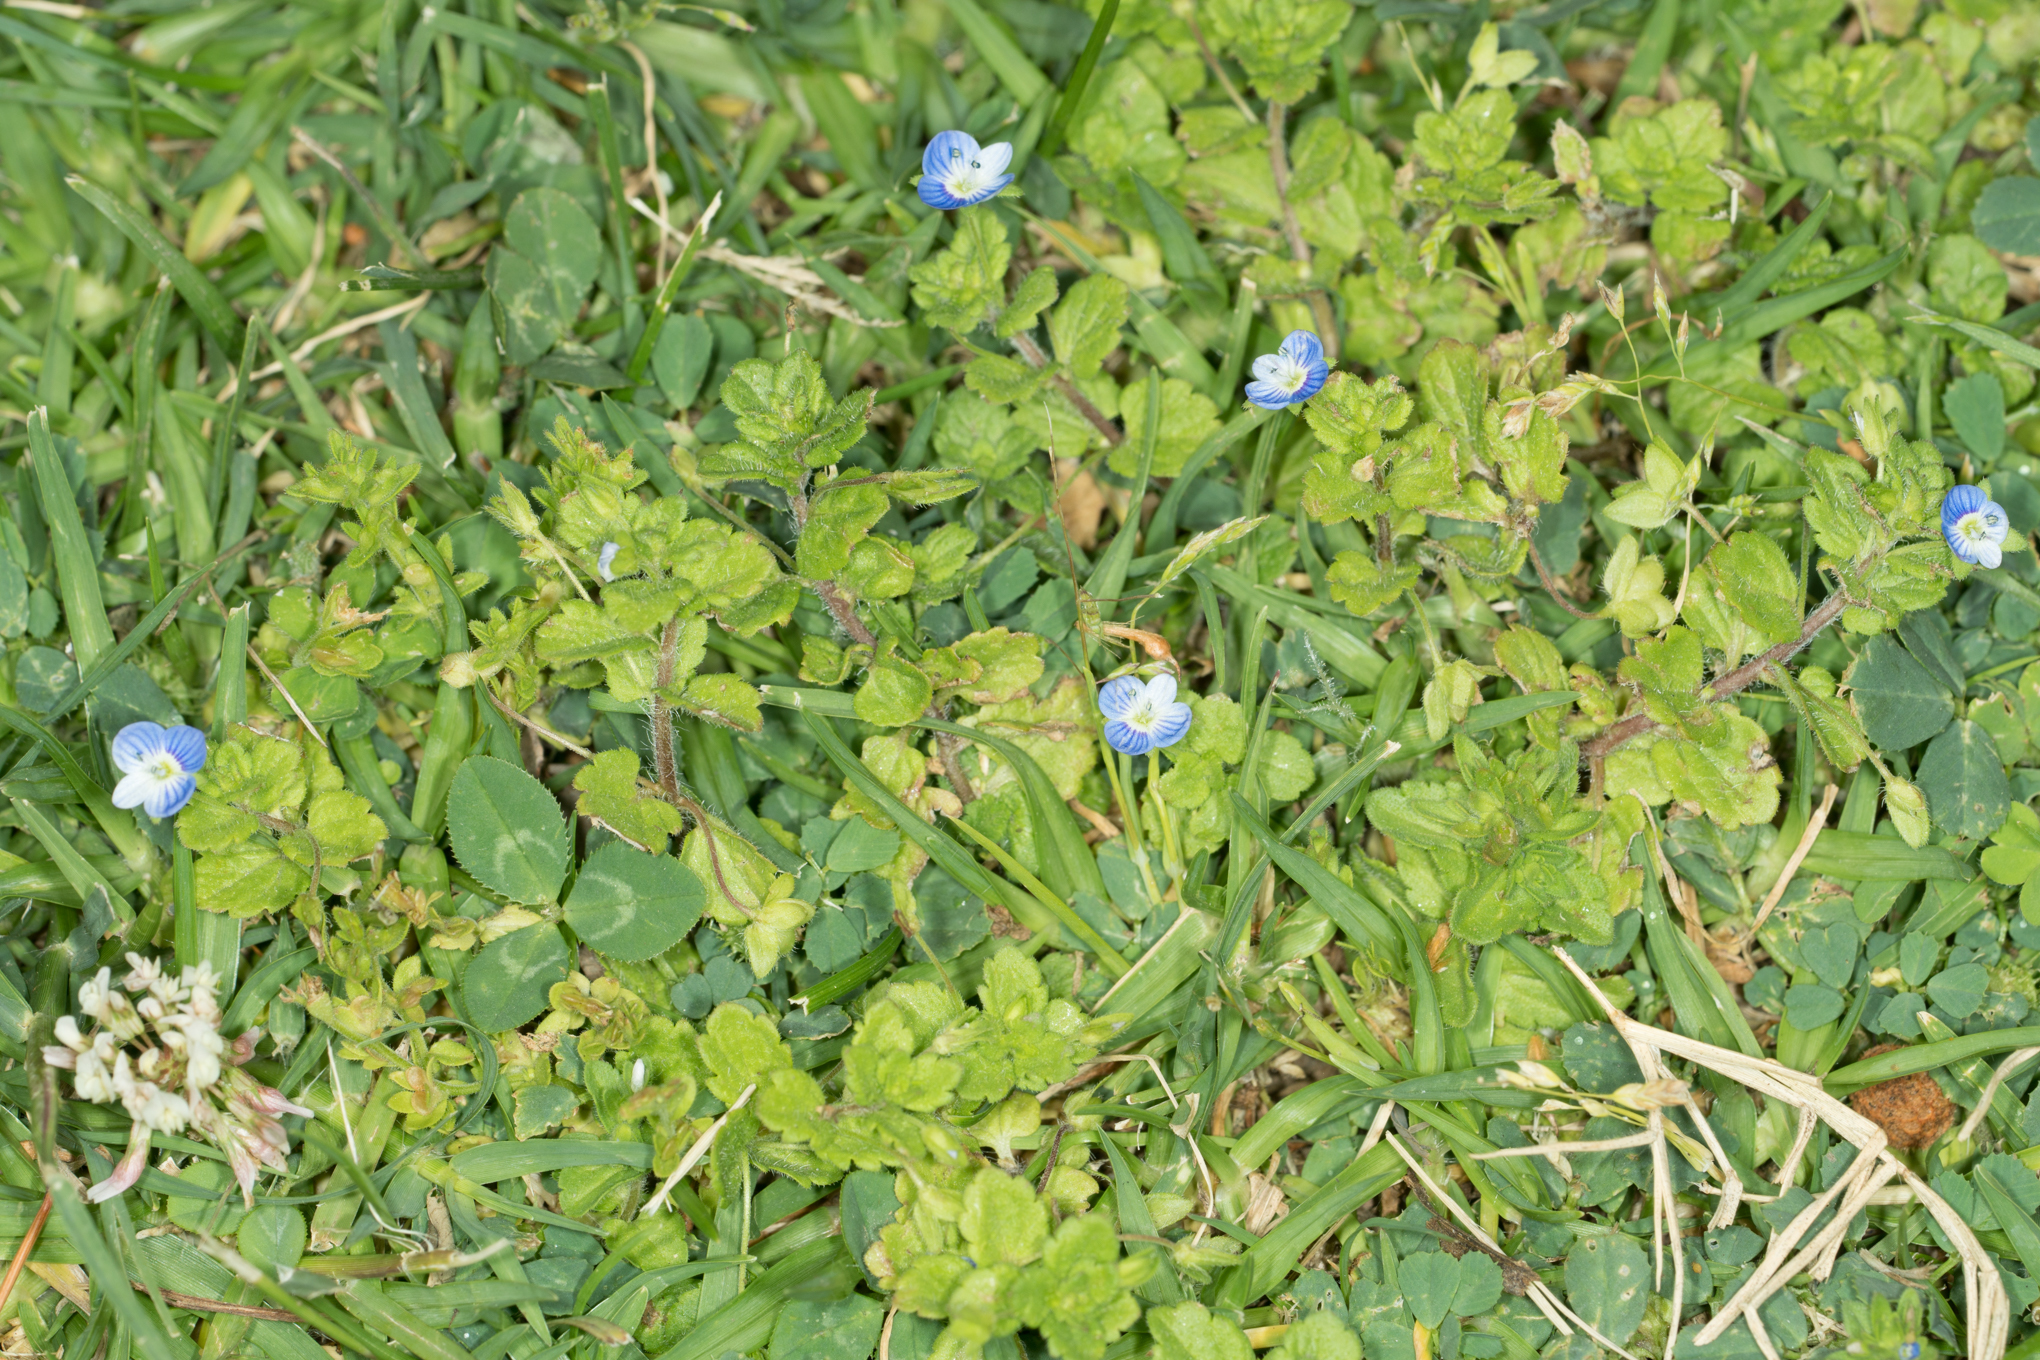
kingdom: Plantae
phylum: Tracheophyta
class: Magnoliopsida
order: Lamiales
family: Plantaginaceae
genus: Veronica
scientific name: Veronica persica
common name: Common field-speedwell
